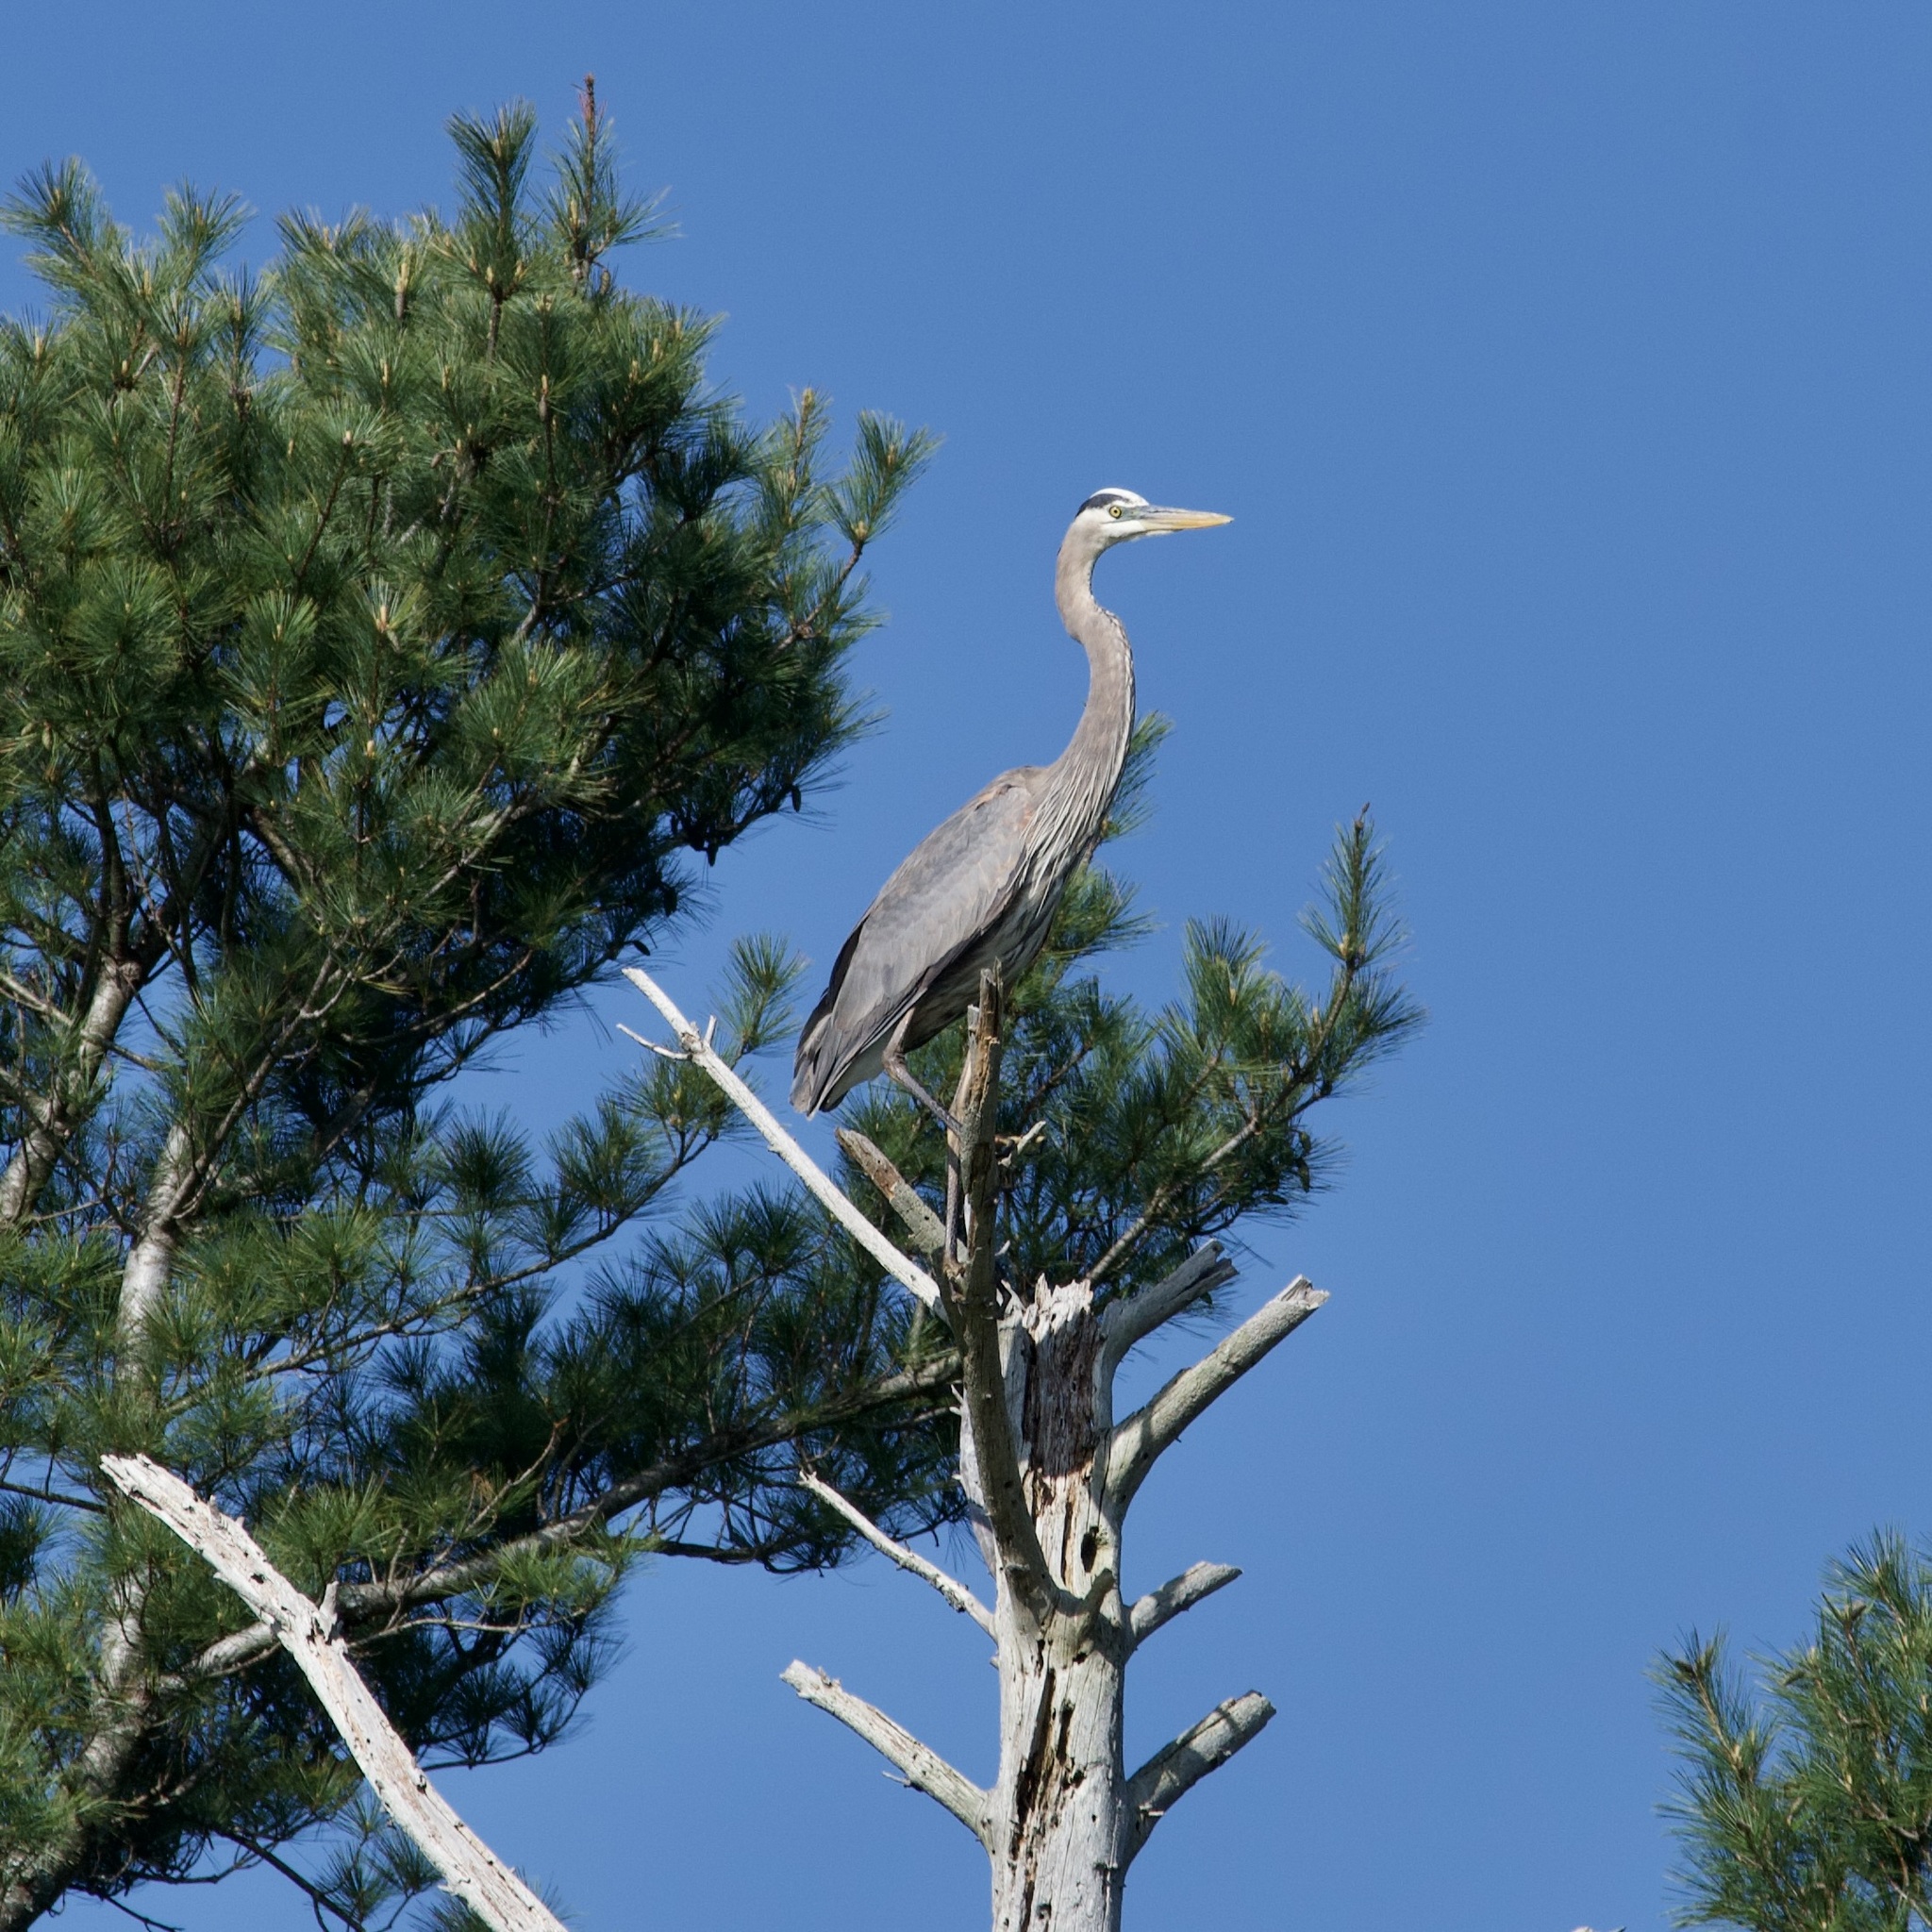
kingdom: Animalia
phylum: Chordata
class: Aves
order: Pelecaniformes
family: Ardeidae
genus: Ardea
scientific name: Ardea herodias
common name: Great blue heron
